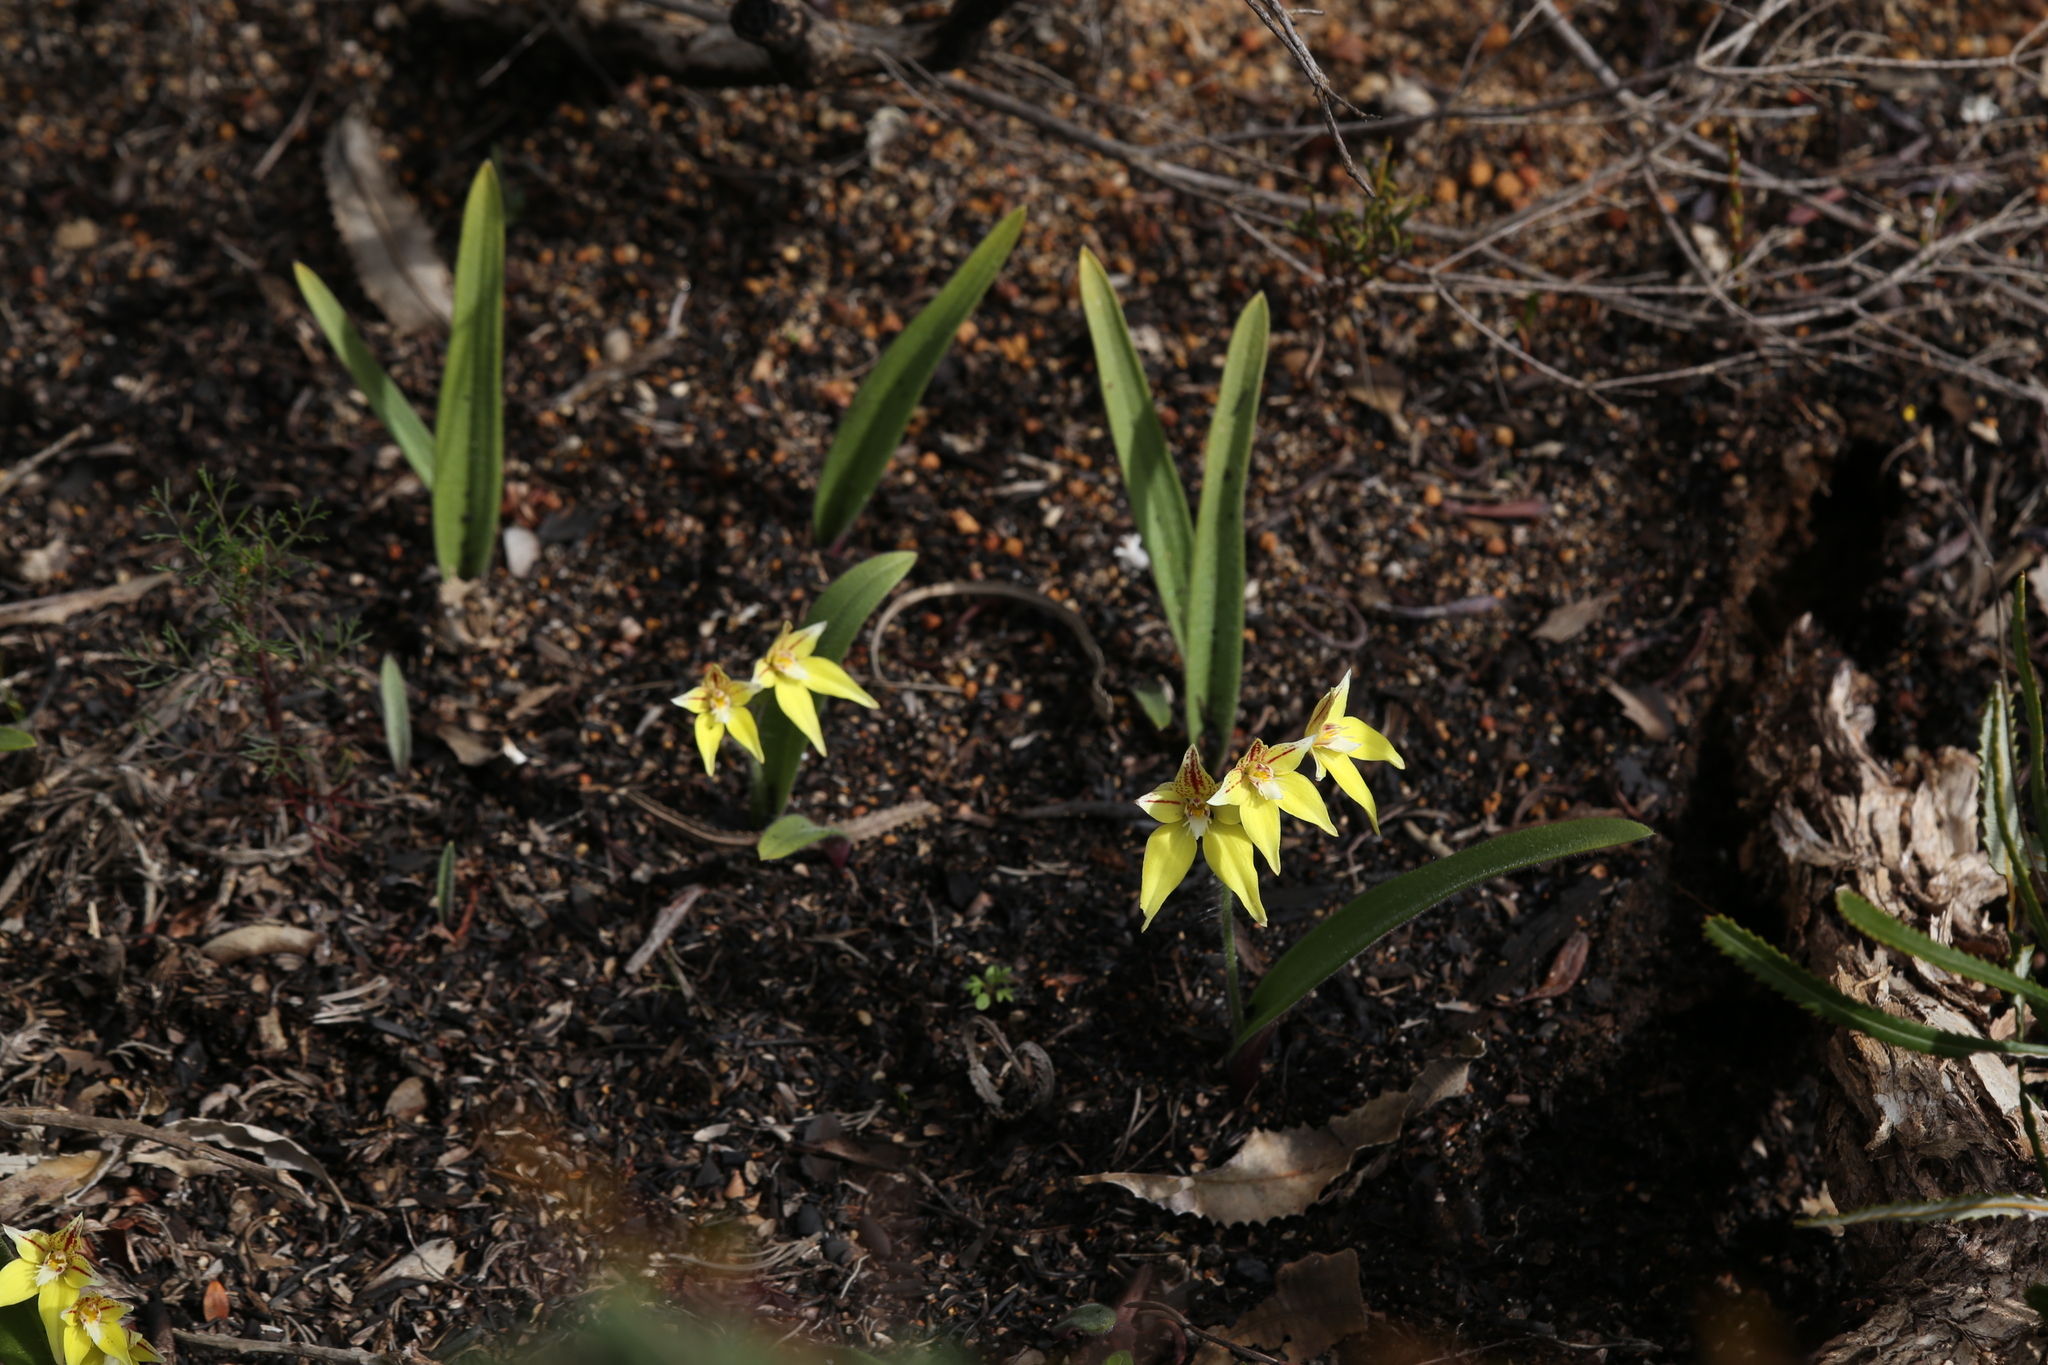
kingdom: Plantae
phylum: Tracheophyta
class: Liliopsida
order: Asparagales
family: Orchidaceae
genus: Caladenia
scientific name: Caladenia flava
